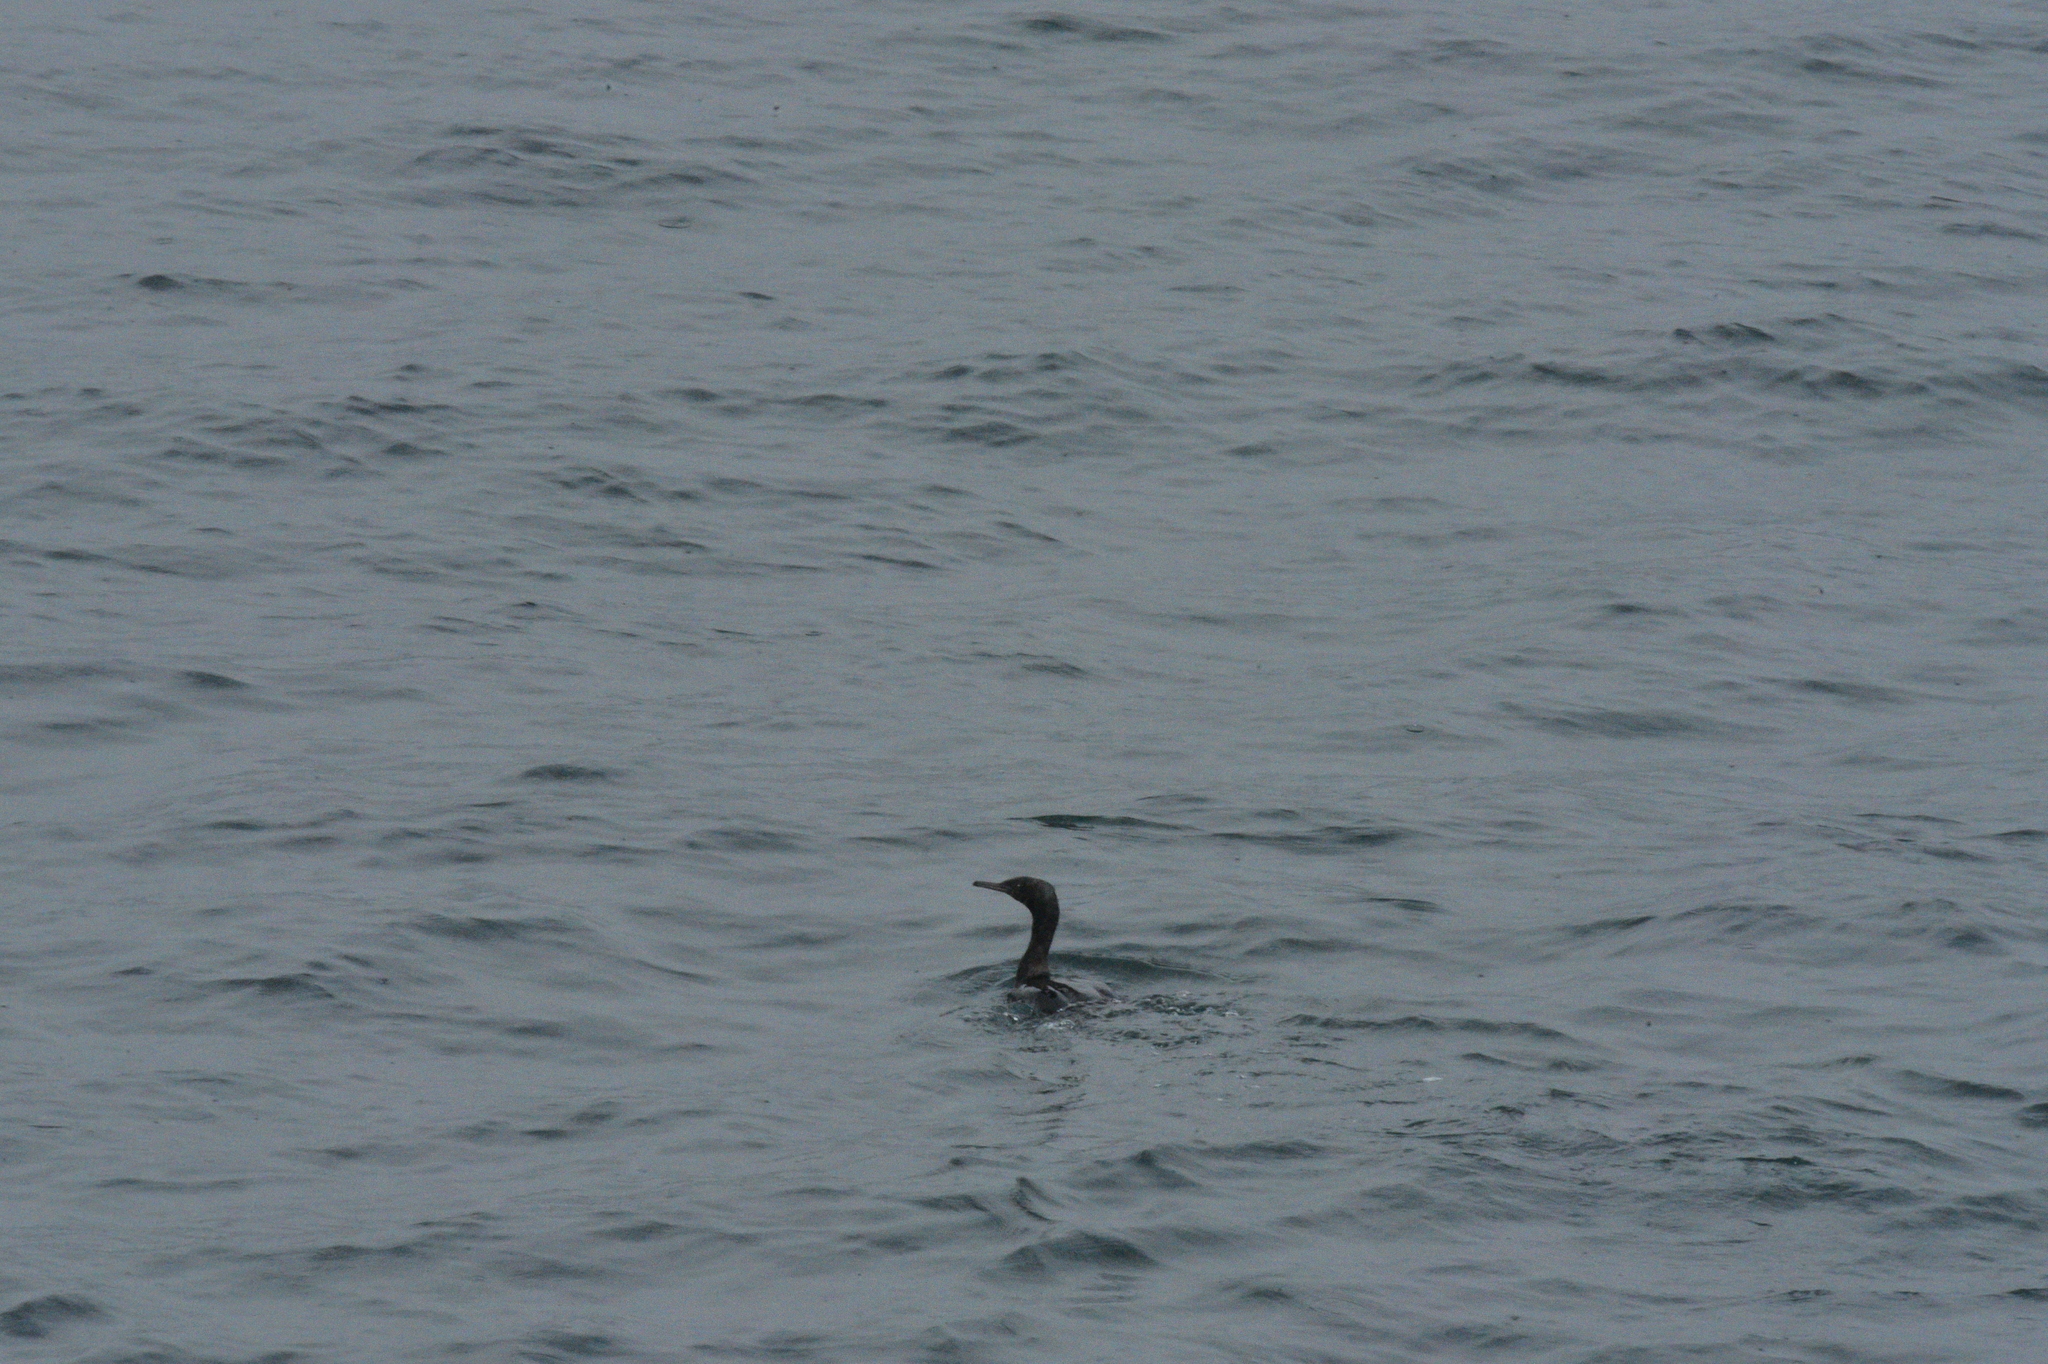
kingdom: Animalia
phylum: Chordata
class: Aves
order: Suliformes
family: Phalacrocoracidae
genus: Phalacrocorax
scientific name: Phalacrocorax pelagicus
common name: Pelagic cormorant
